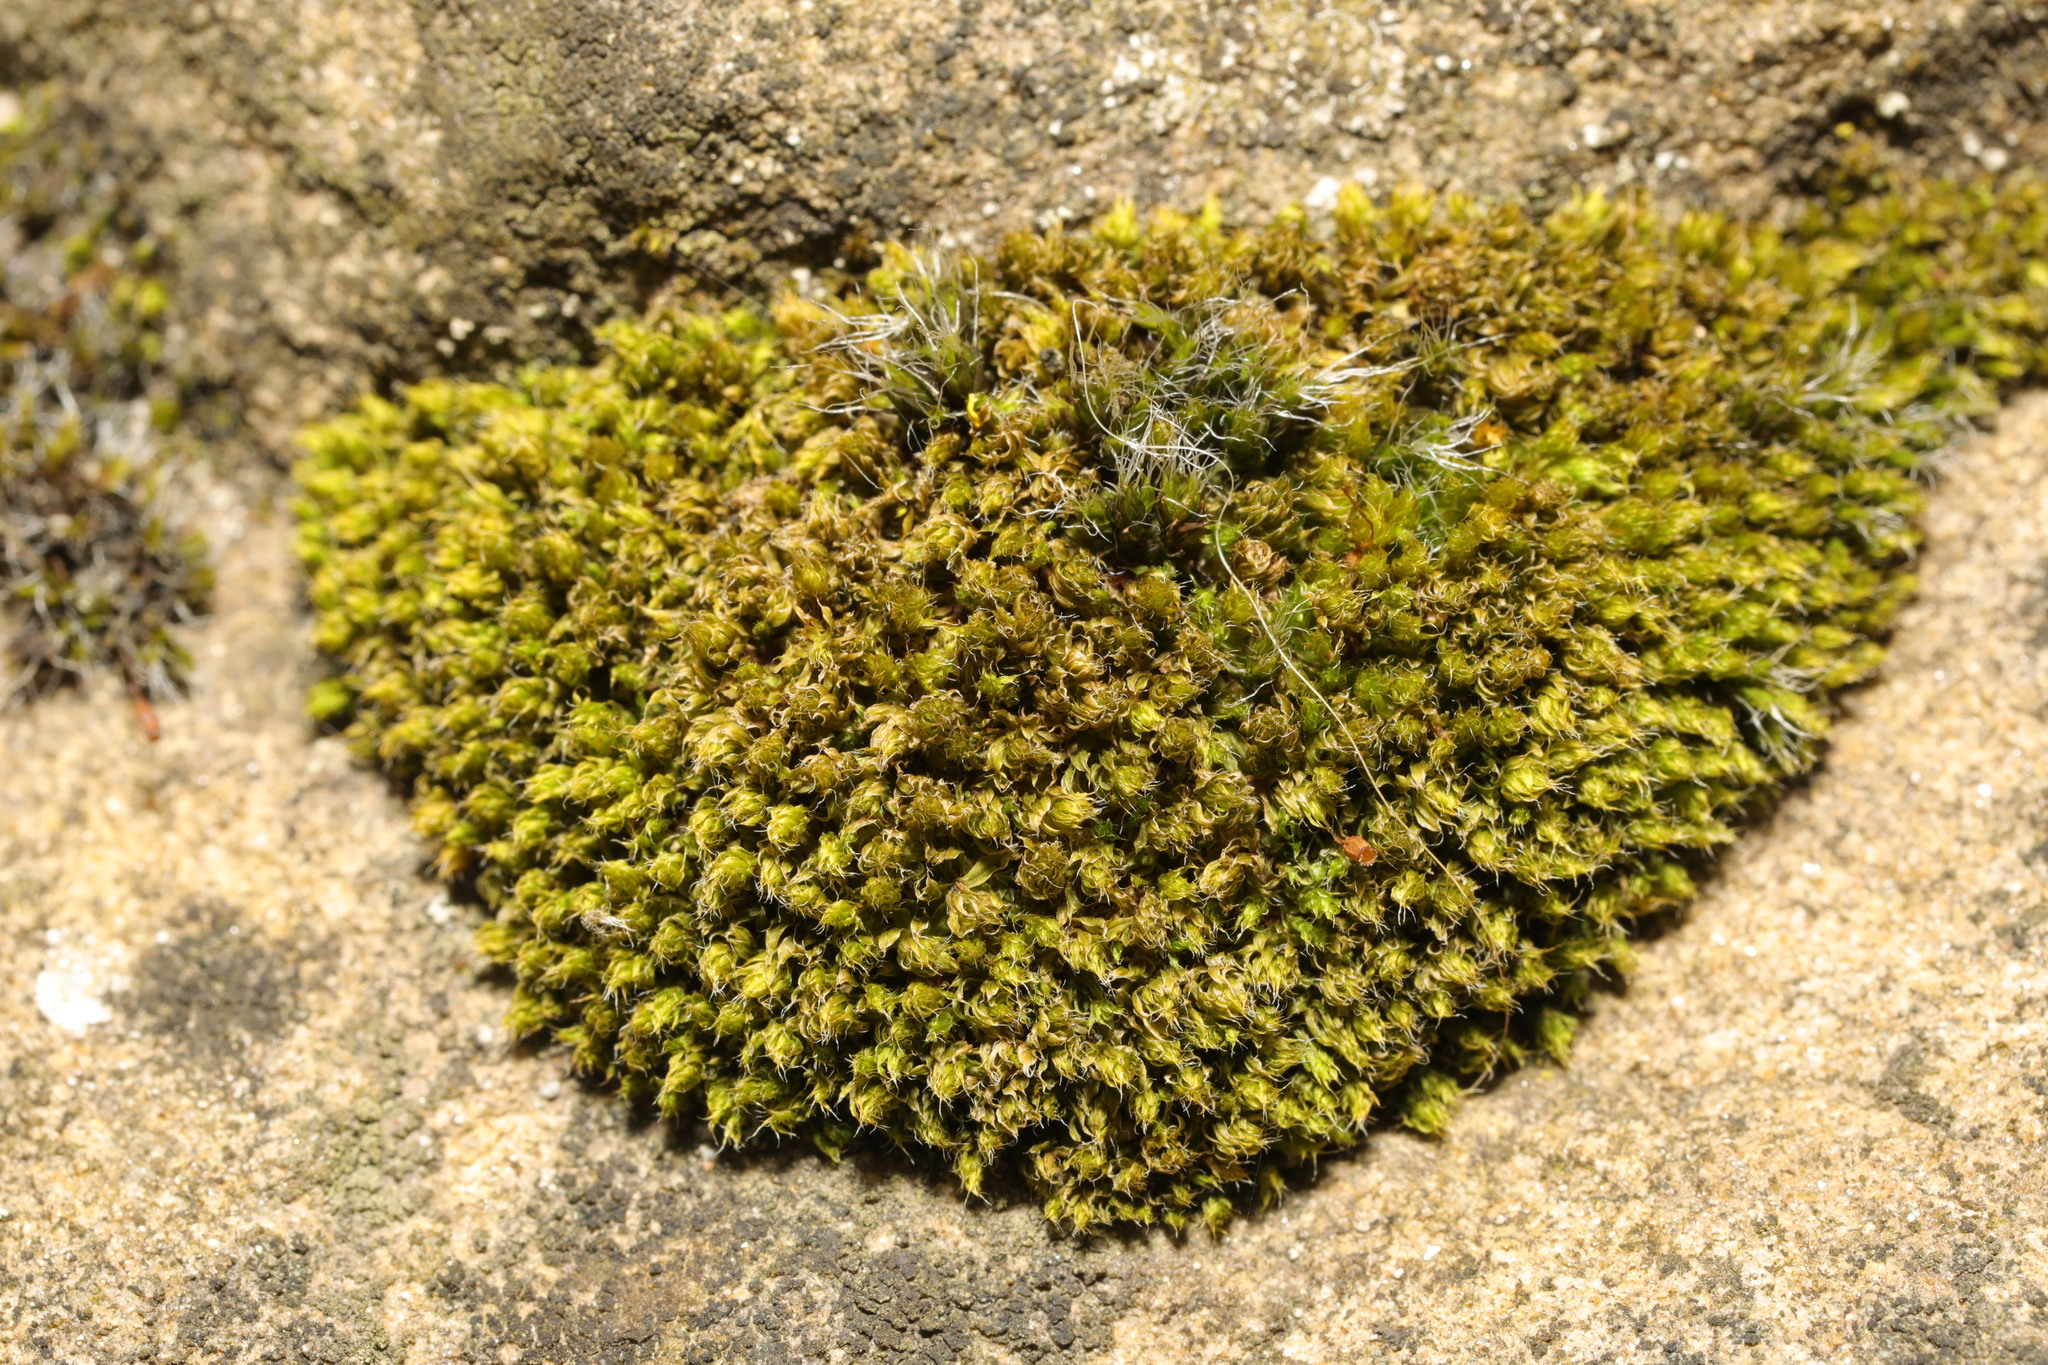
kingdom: Plantae
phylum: Bryophyta
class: Bryopsida
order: Bryales
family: Bryaceae
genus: Rosulabryum
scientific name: Rosulabryum capillare
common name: Capillary thread-moss
